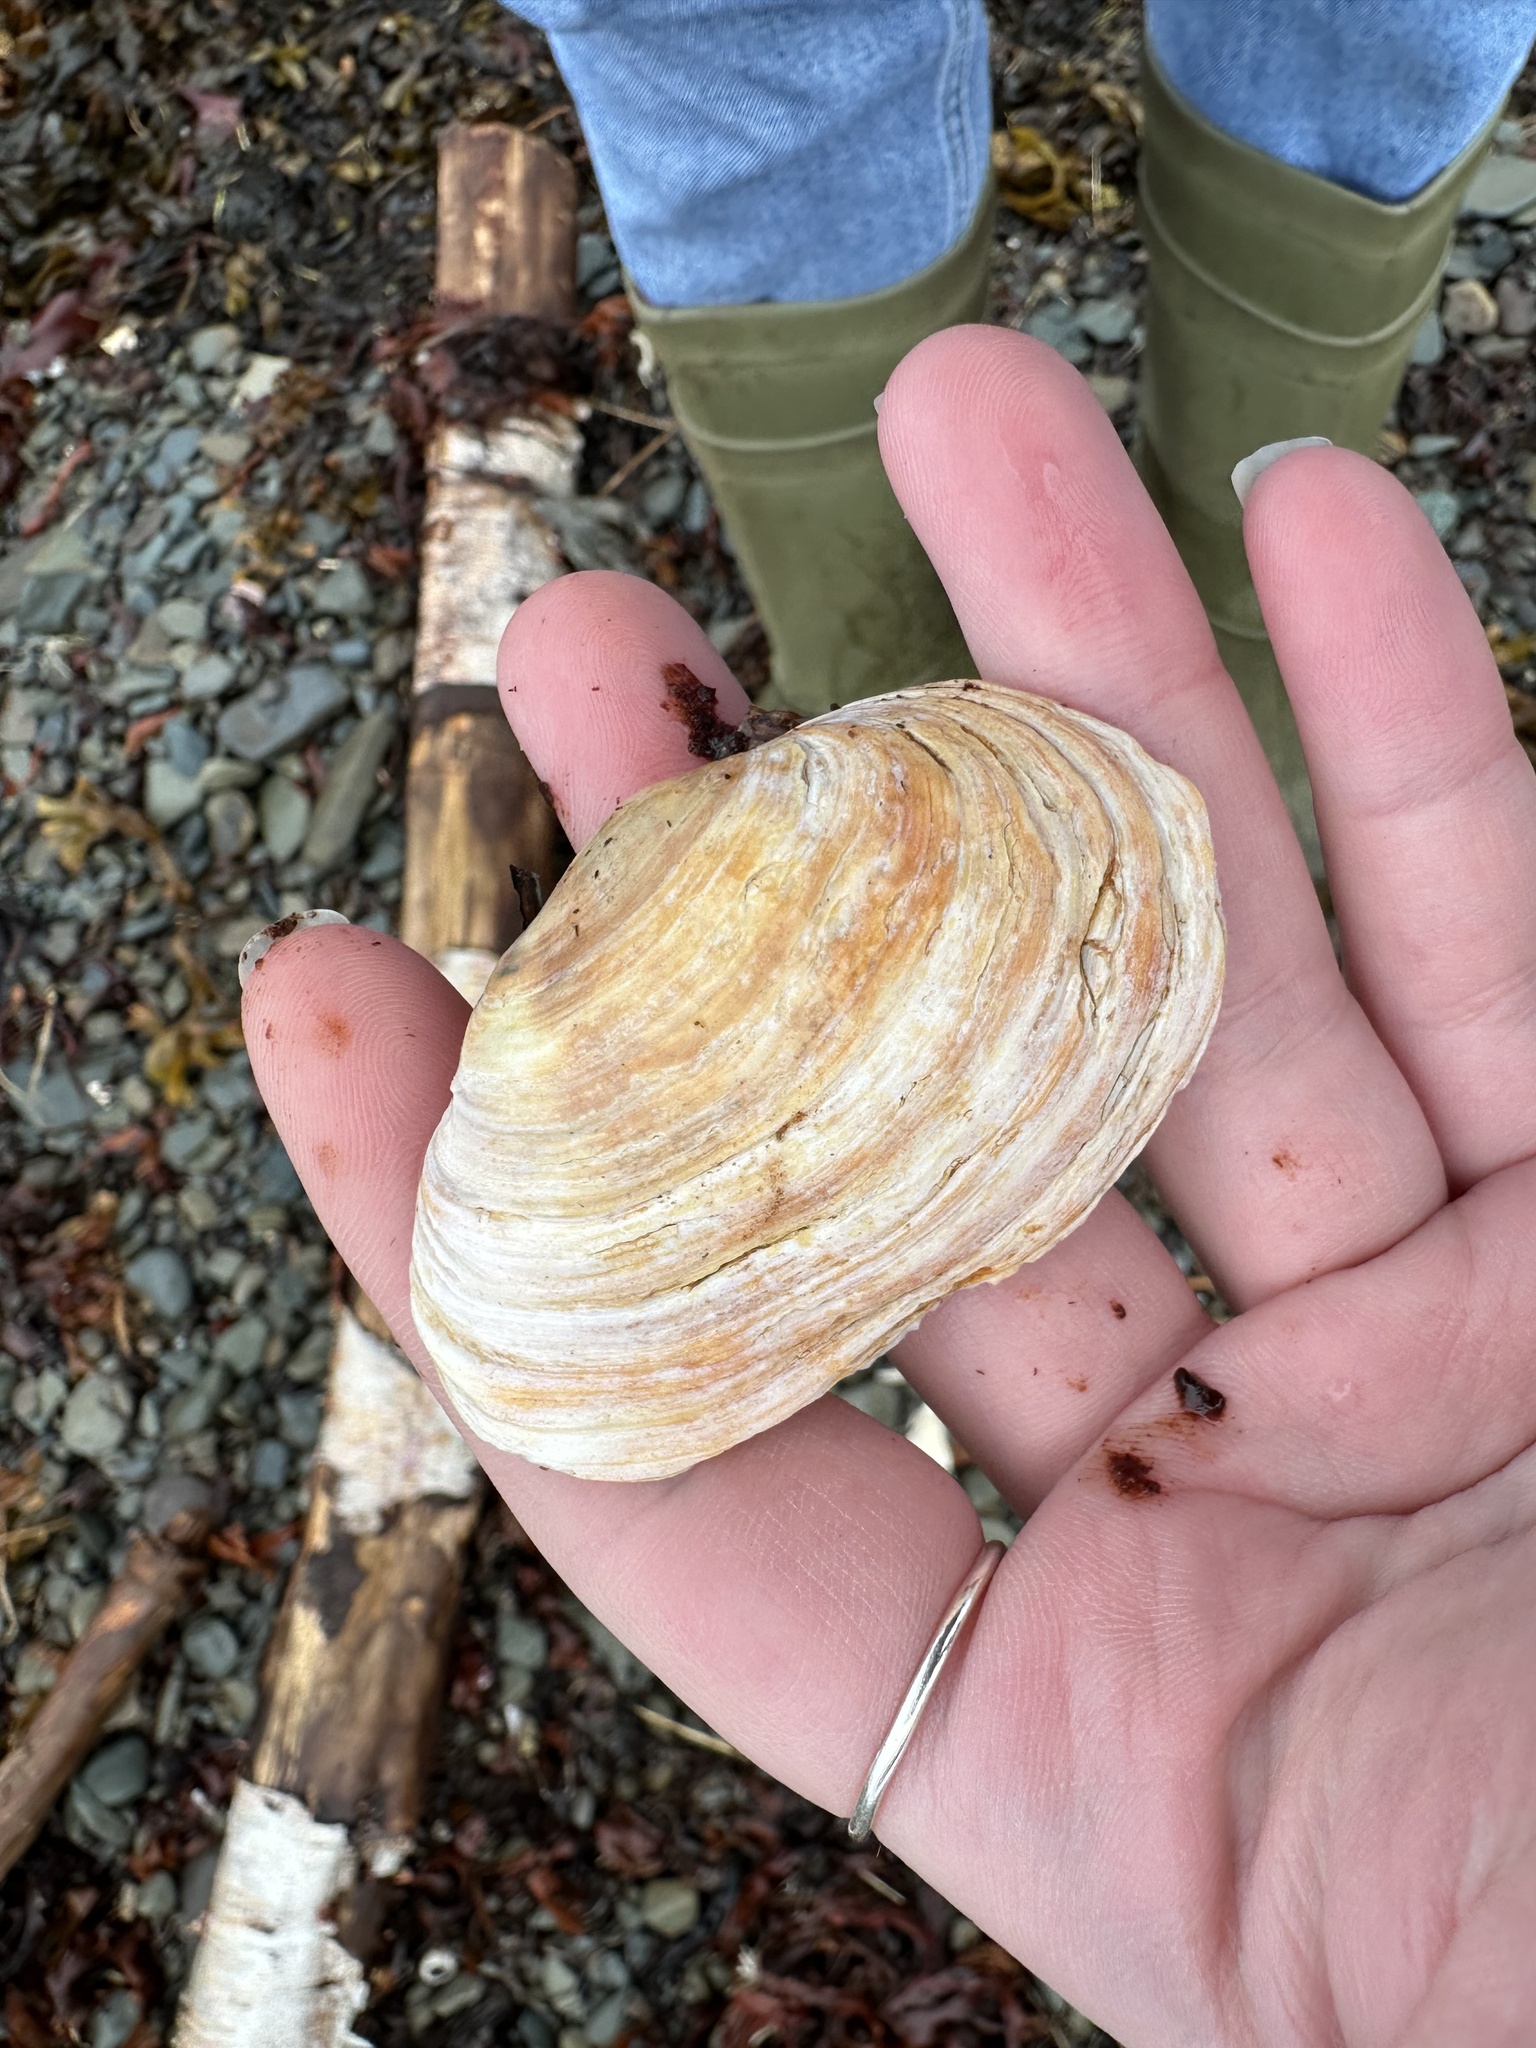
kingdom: Animalia
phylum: Mollusca
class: Bivalvia
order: Myida
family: Myidae
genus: Mya
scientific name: Mya arenaria
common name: Soft-shelled clam
